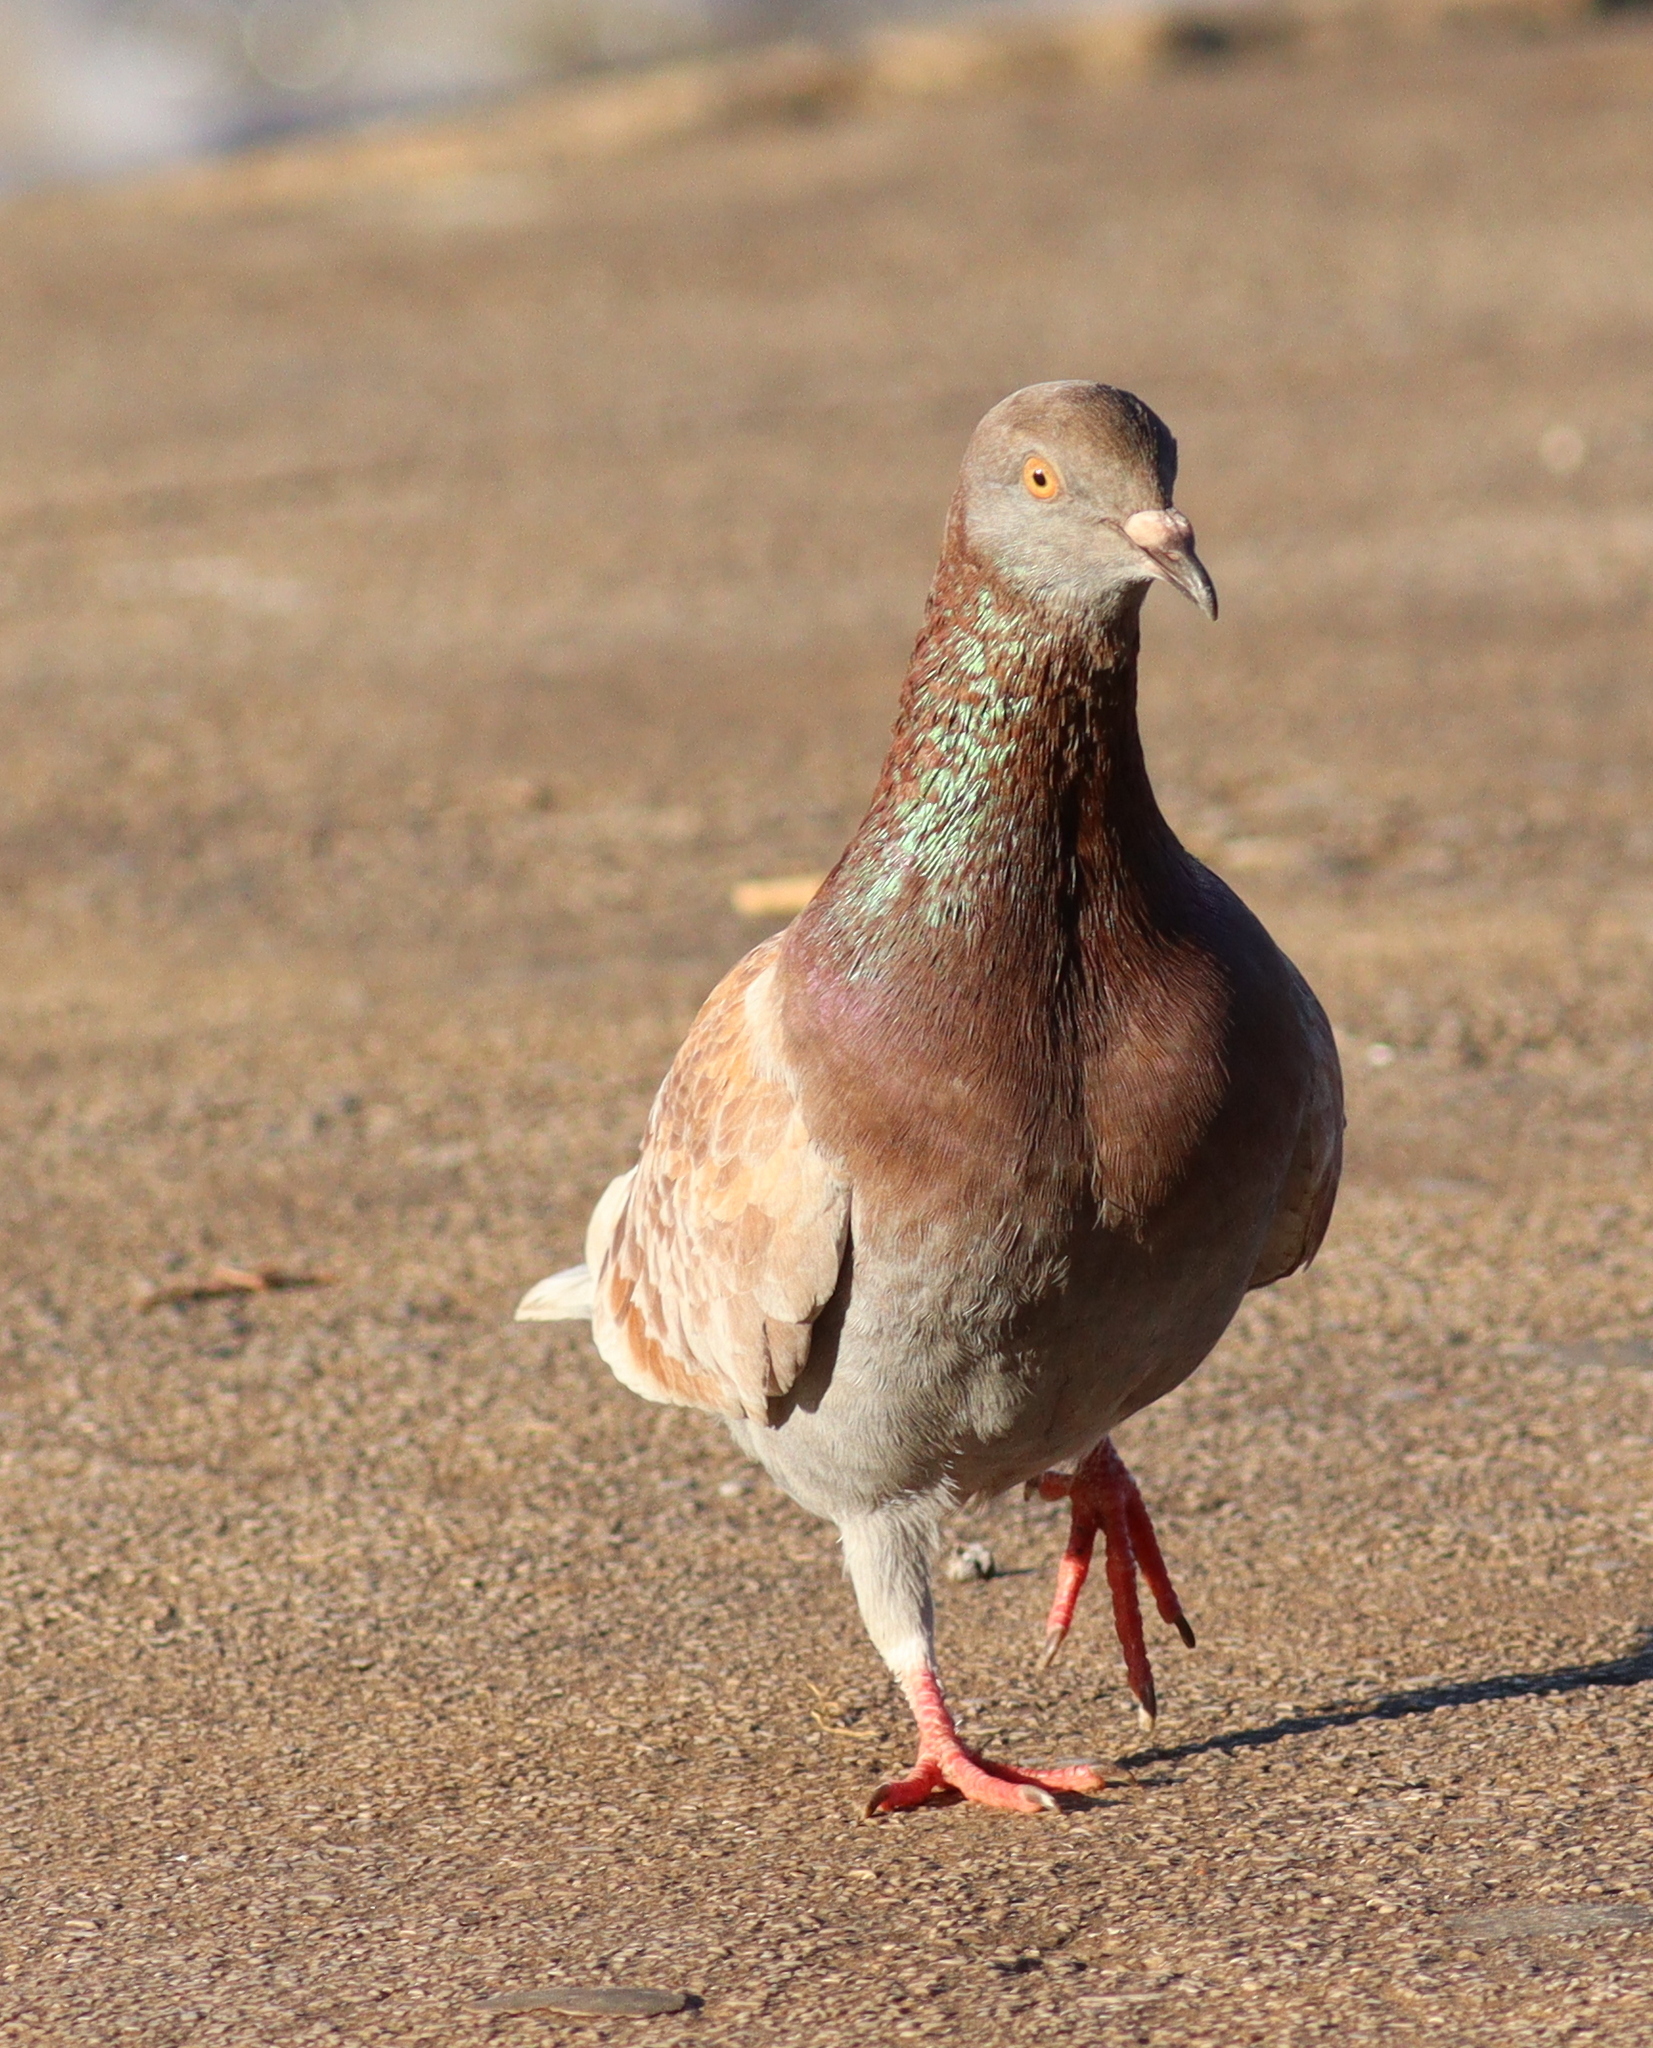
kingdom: Animalia
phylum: Chordata
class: Aves
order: Columbiformes
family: Columbidae
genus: Columba
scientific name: Columba livia
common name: Rock pigeon
